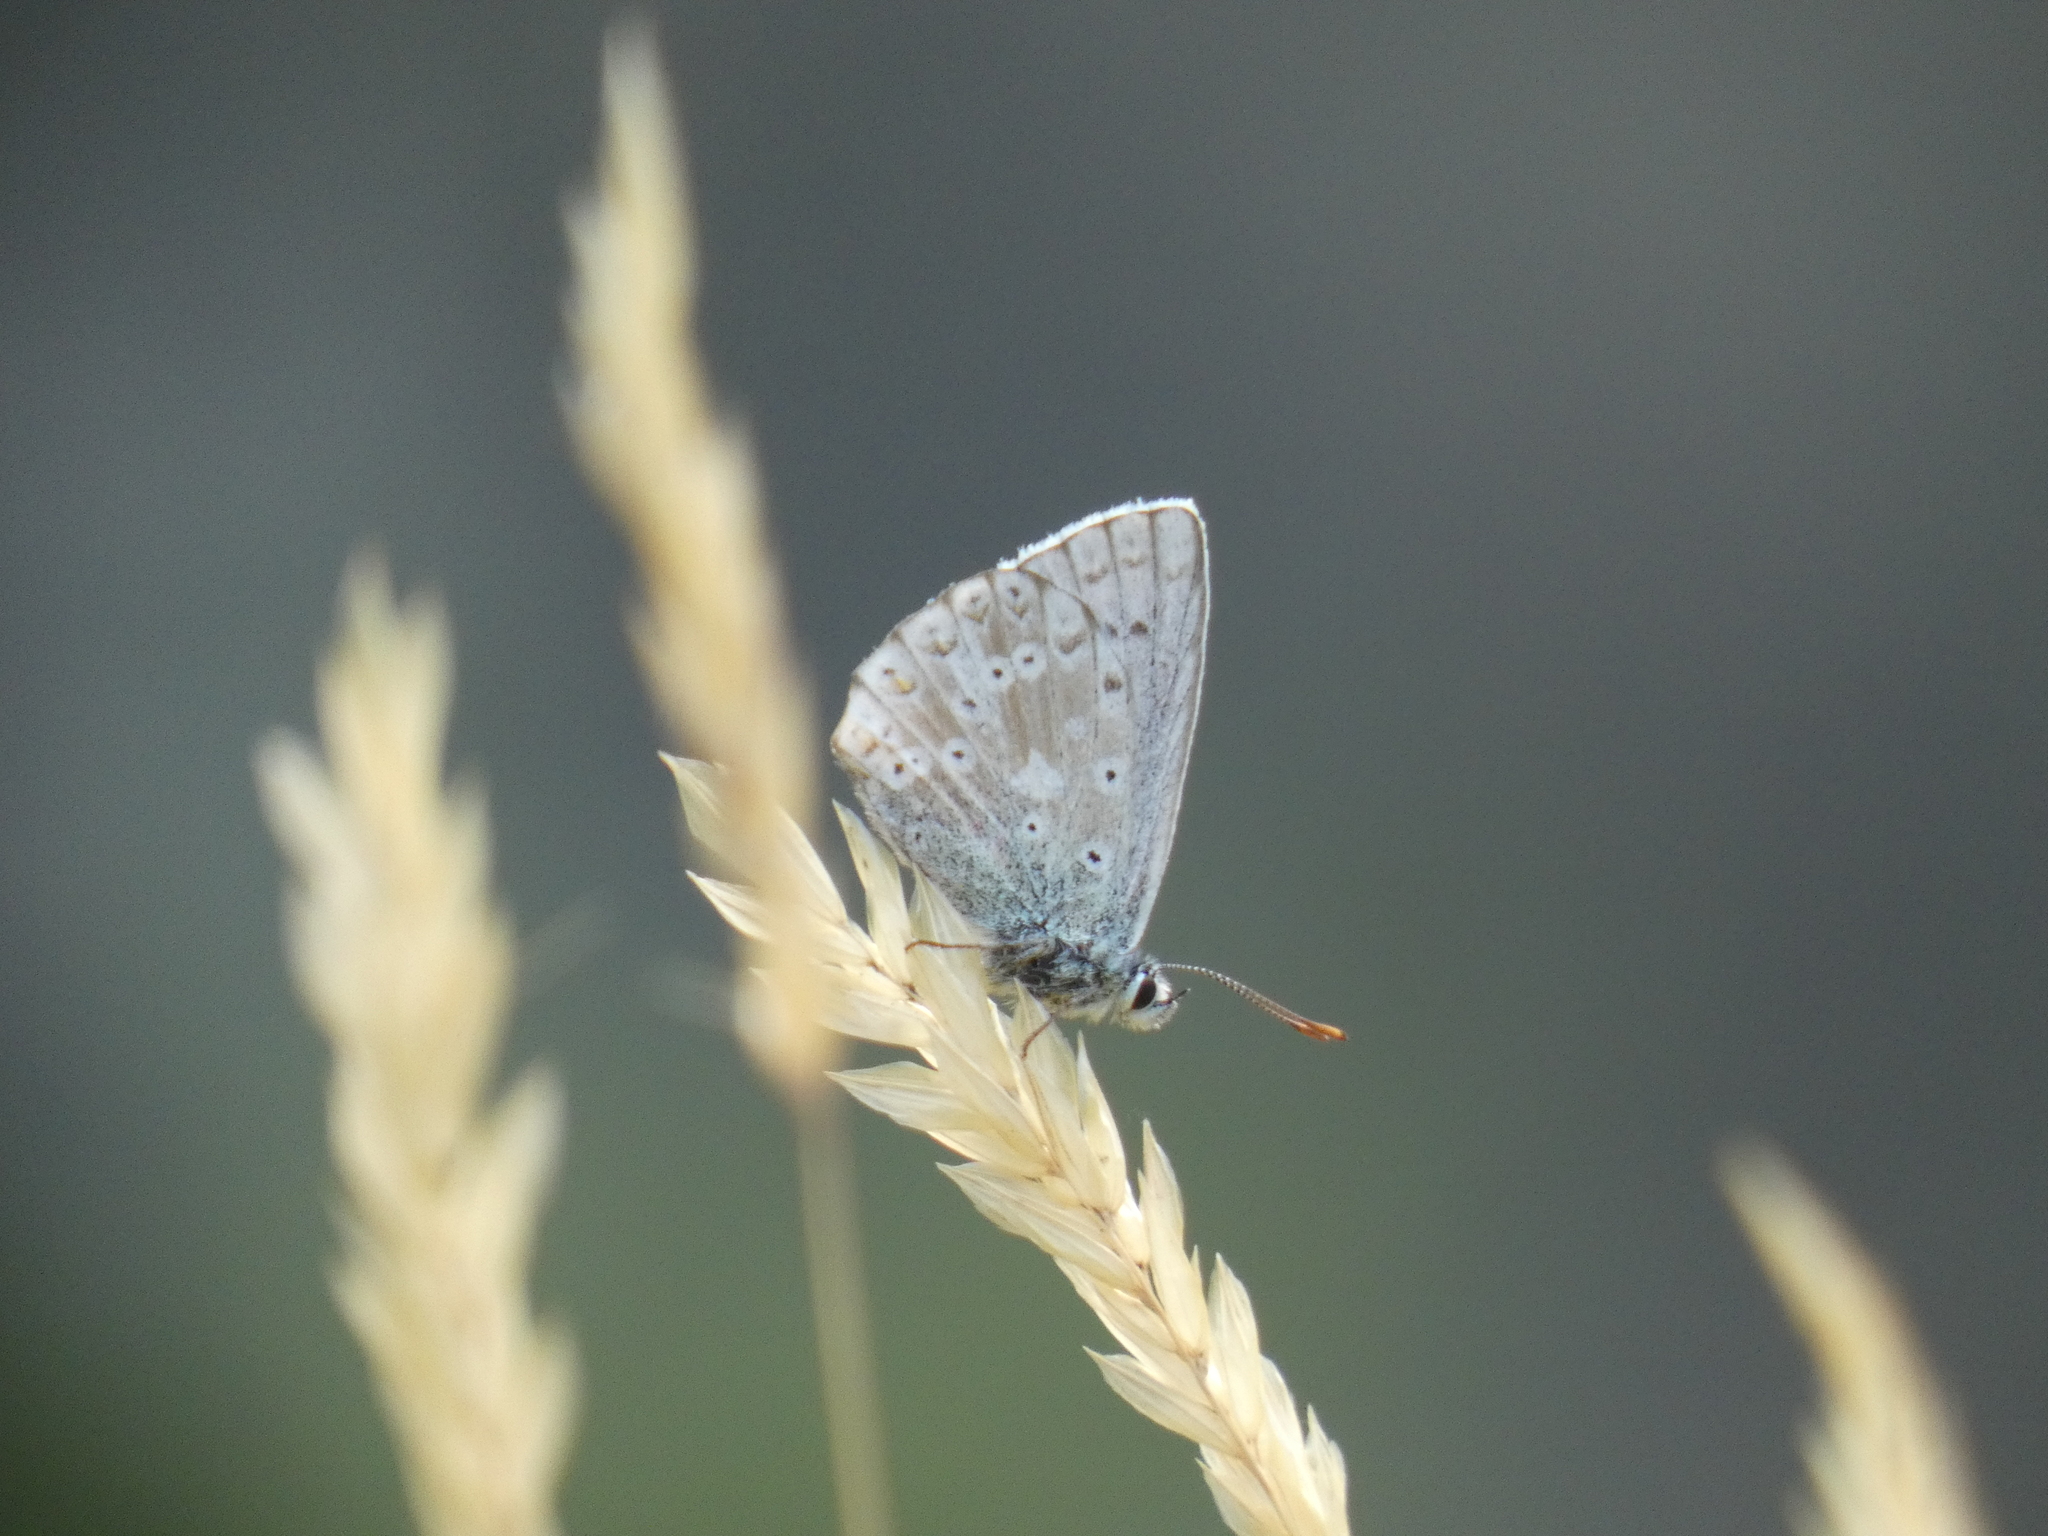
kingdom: Animalia
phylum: Arthropoda
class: Insecta
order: Lepidoptera
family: Lycaenidae
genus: Lysandra
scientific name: Lysandra coridon
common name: Chalkhill blue
